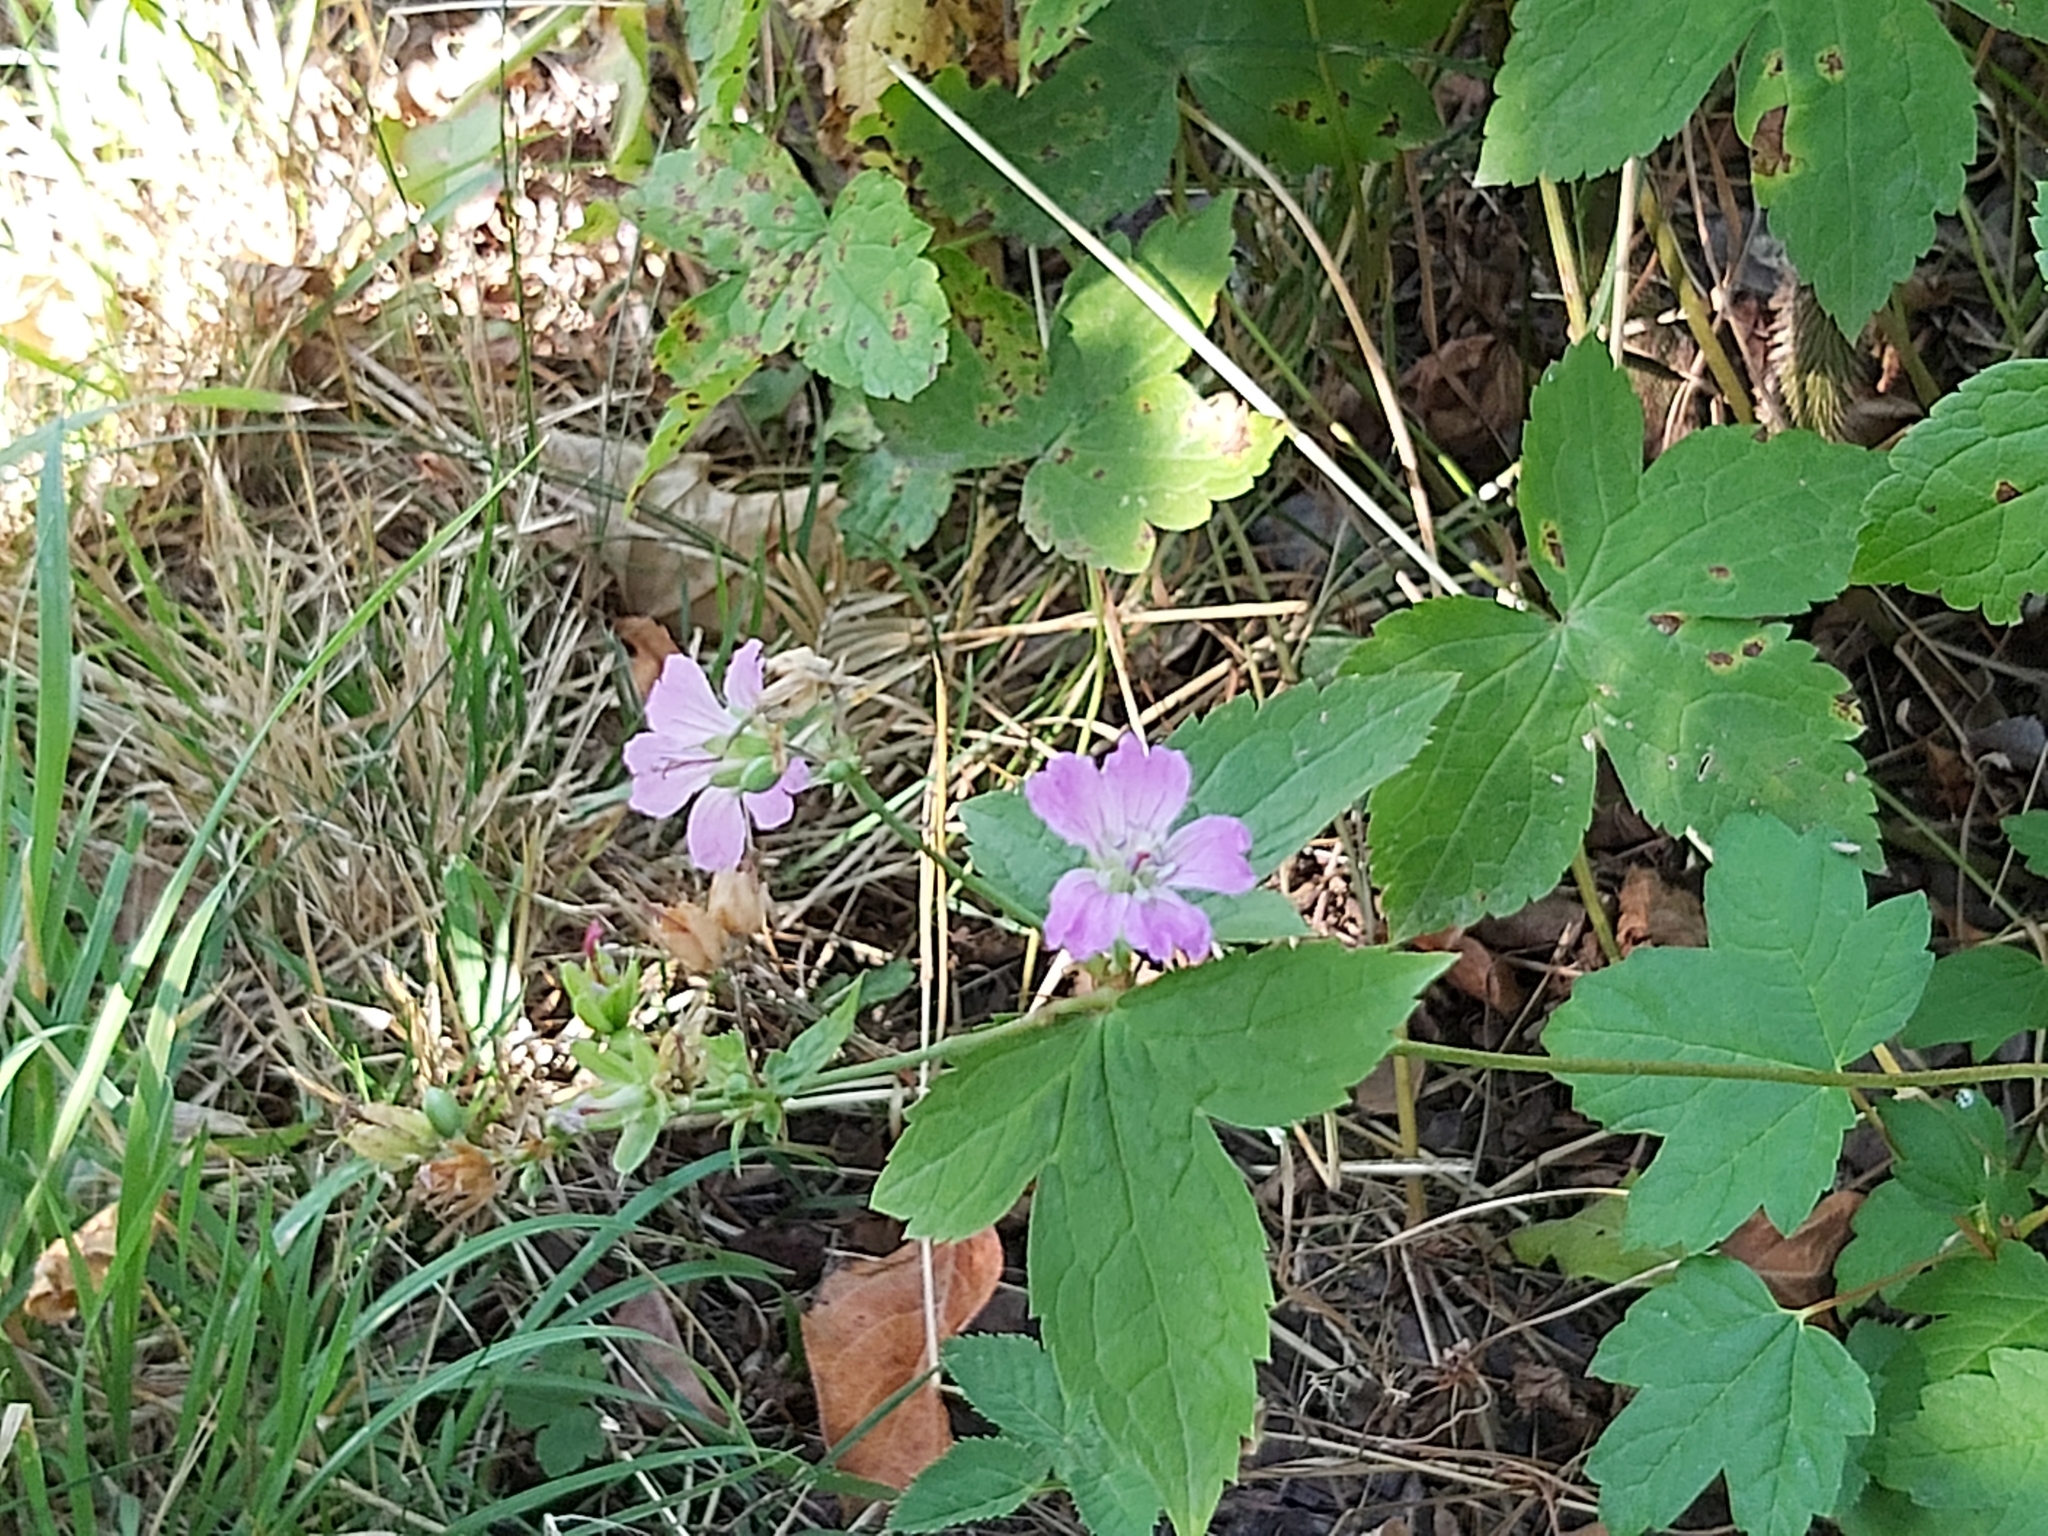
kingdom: Plantae
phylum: Tracheophyta
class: Magnoliopsida
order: Geraniales
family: Geraniaceae
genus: Geranium
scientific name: Geranium nodosum
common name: Knotted crane's-bill
